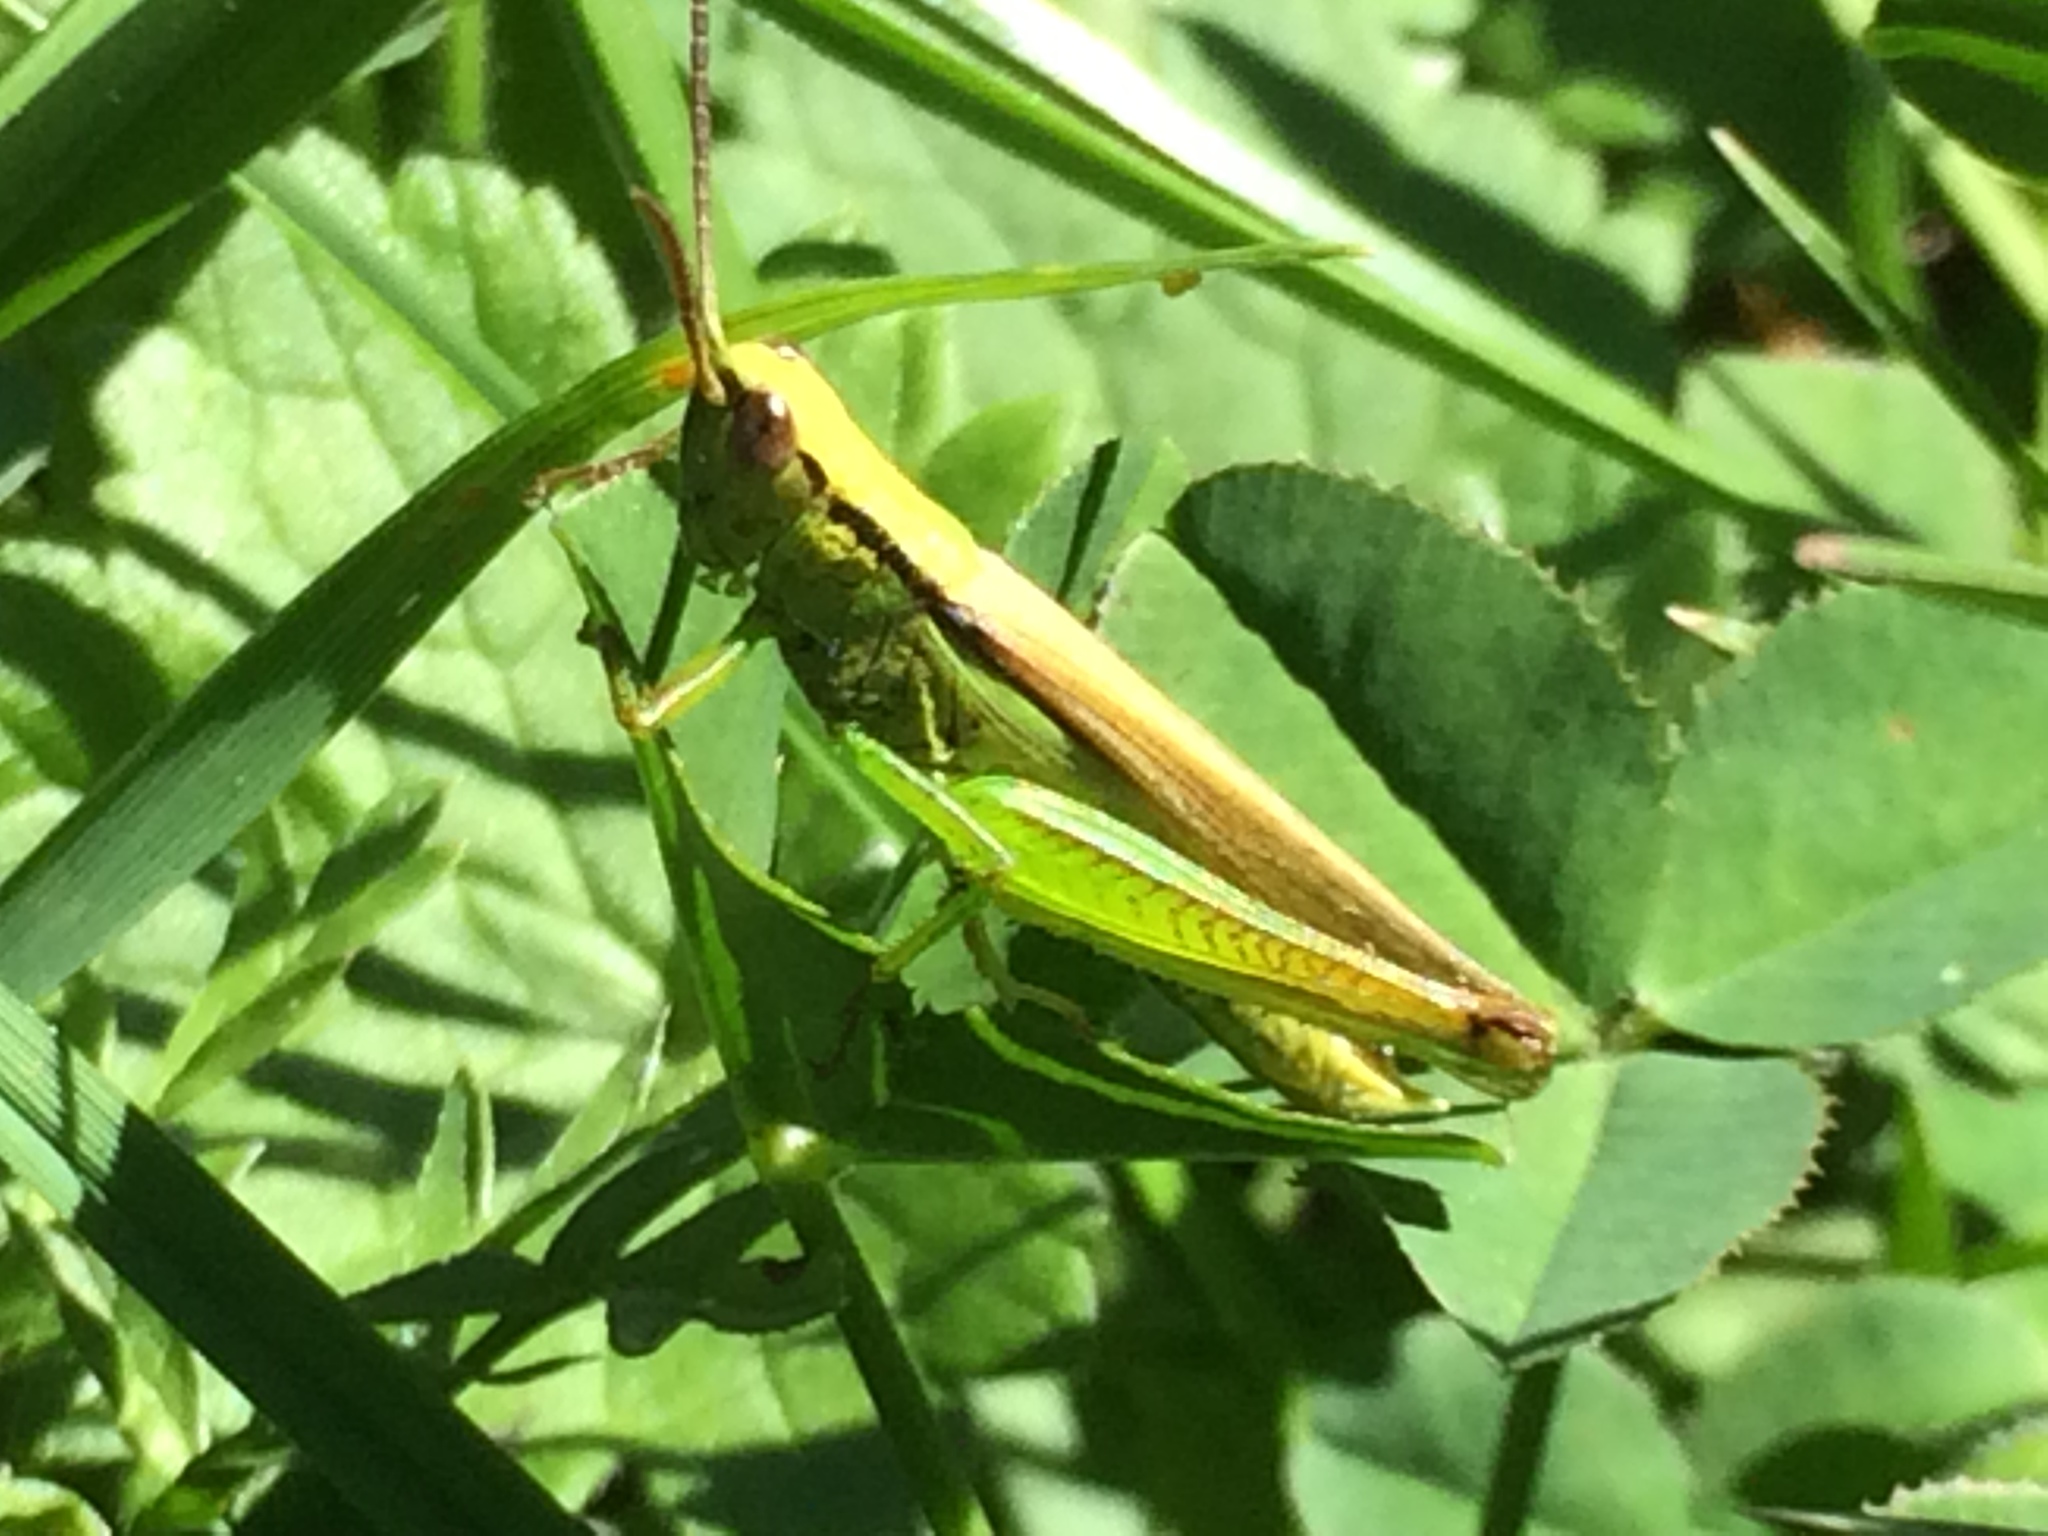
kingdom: Animalia
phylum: Arthropoda
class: Insecta
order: Orthoptera
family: Acrididae
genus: Mecostethus
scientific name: Mecostethus parapleurus
